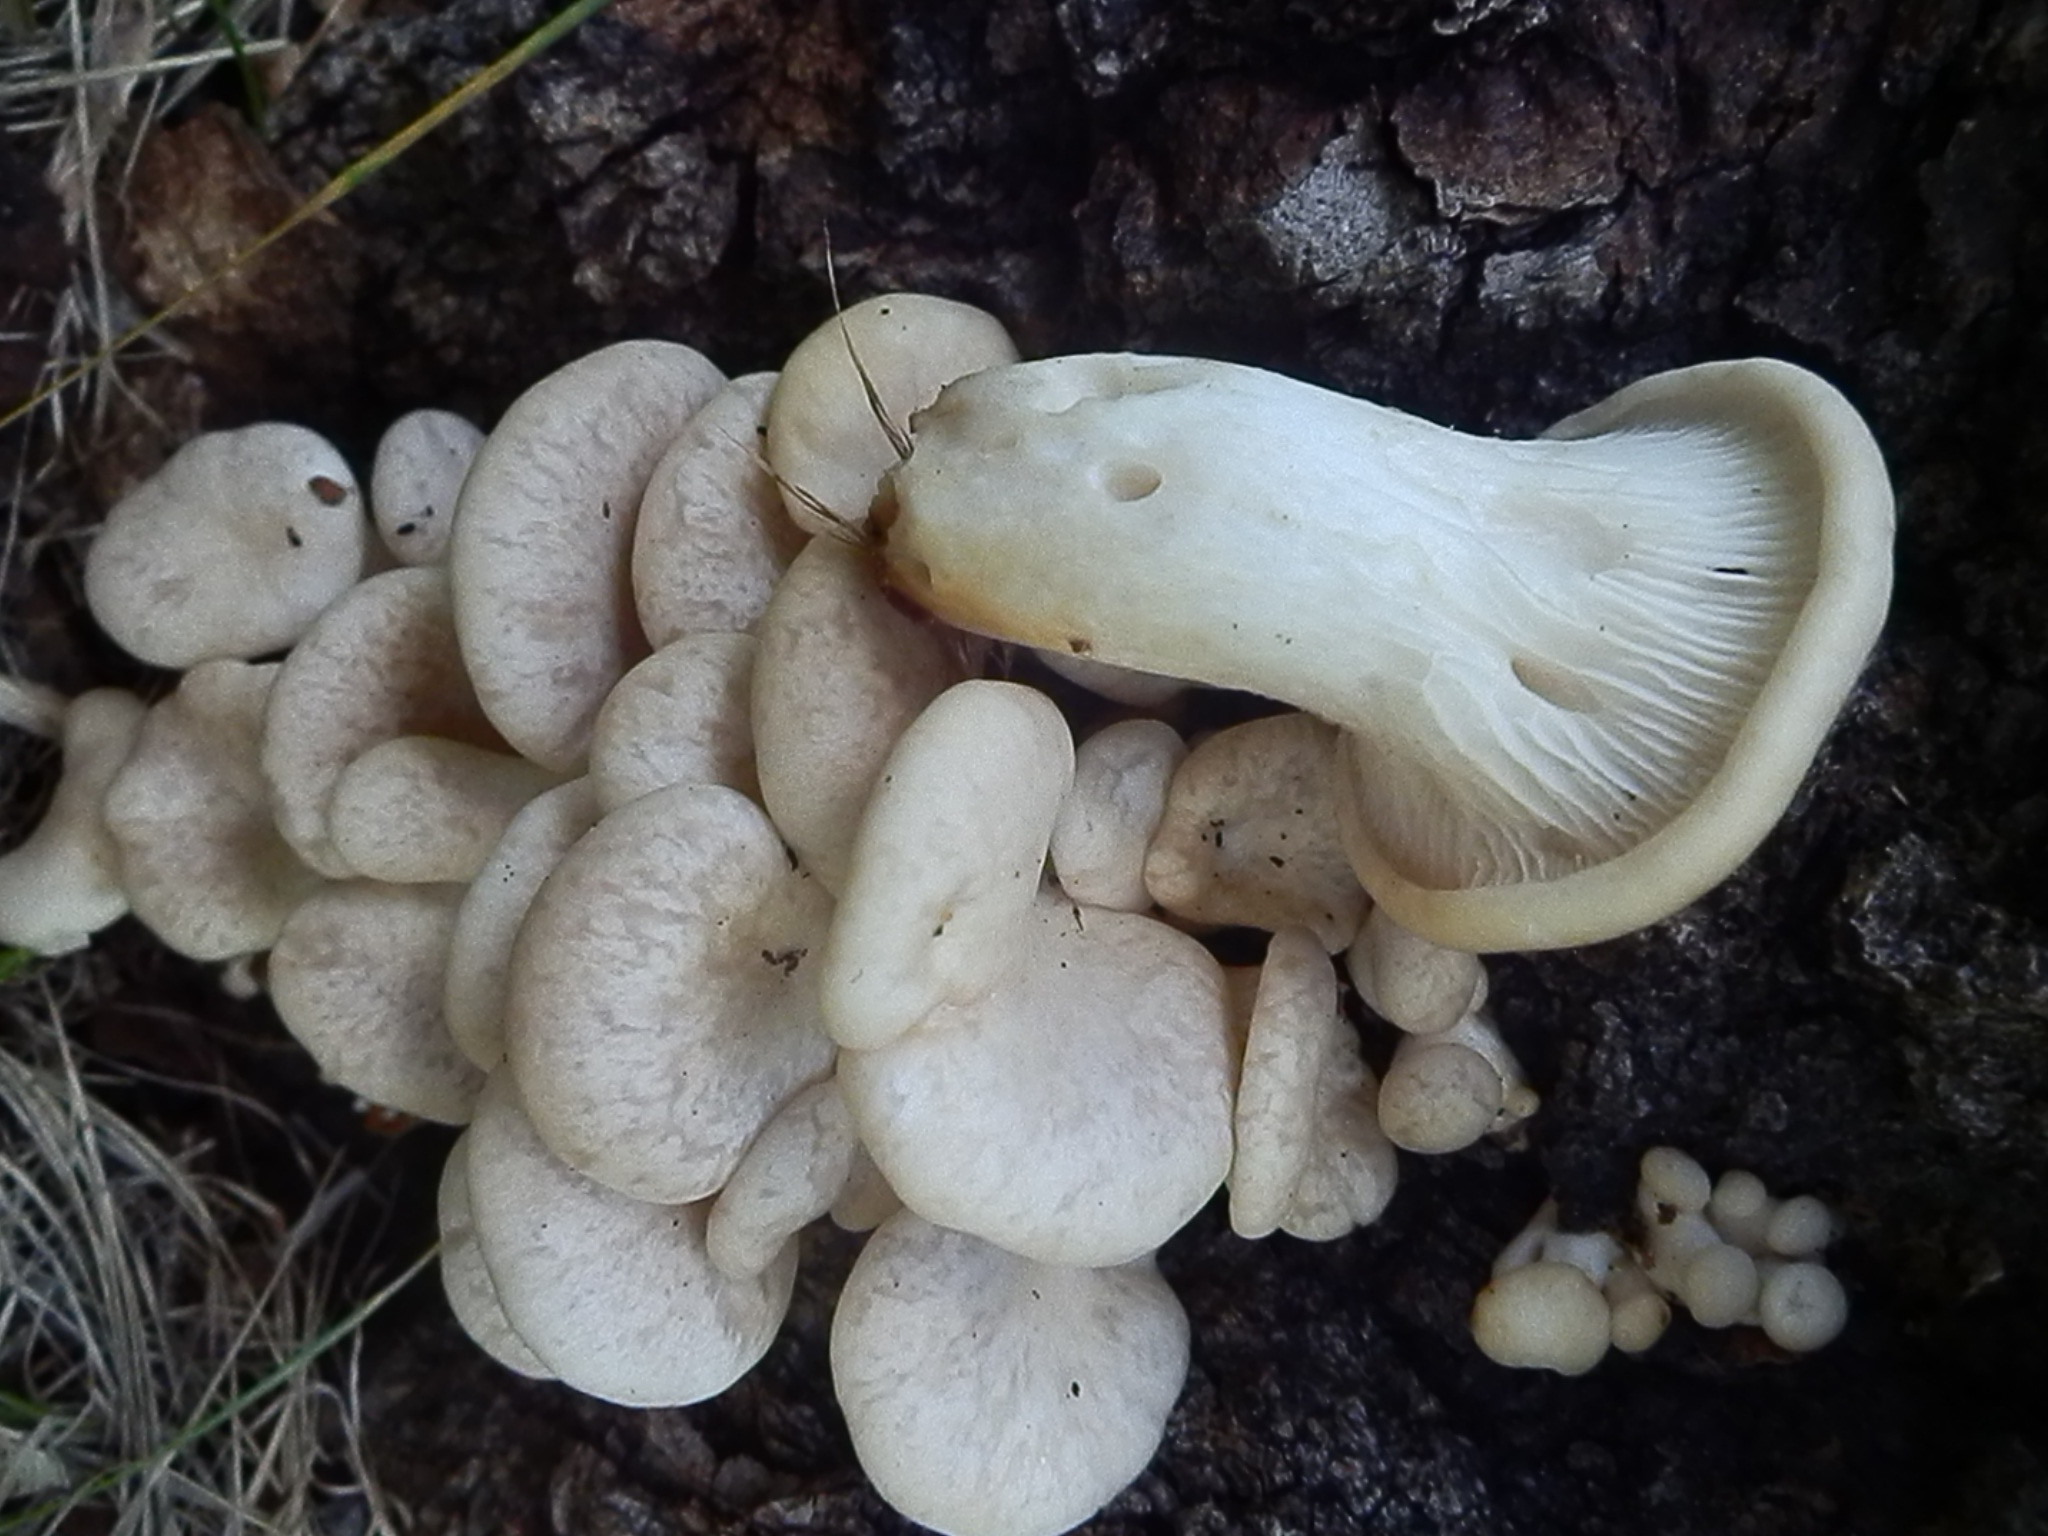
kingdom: Fungi
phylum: Basidiomycota
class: Agaricomycetes
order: Agaricales
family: Pleurotaceae
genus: Pleurotus
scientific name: Pleurotus populinus
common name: Aspen oyster mushroom
